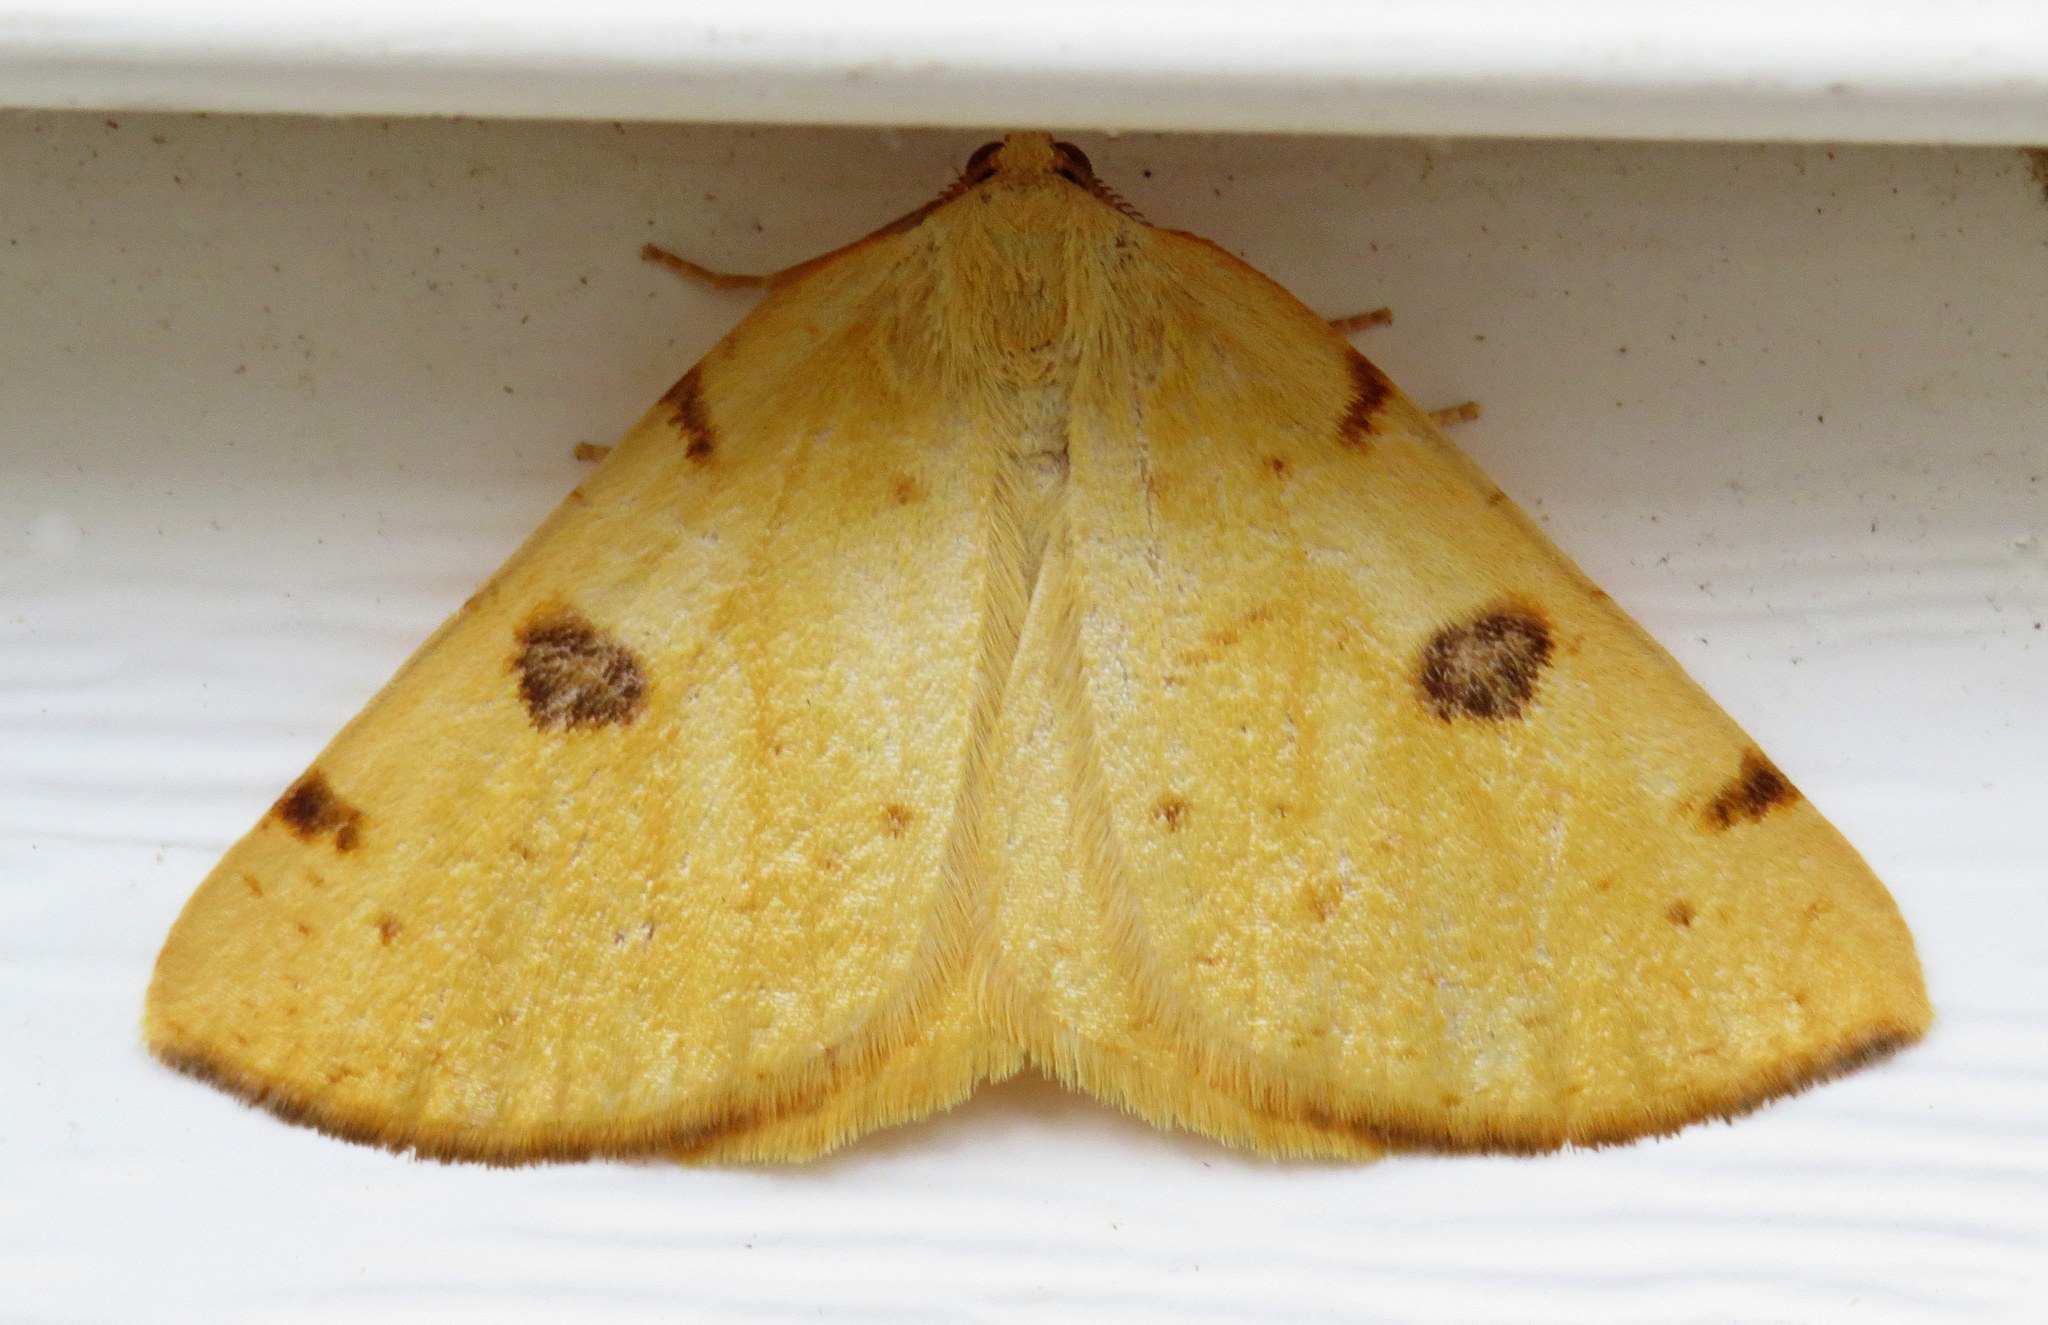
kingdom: Animalia
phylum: Arthropoda
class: Insecta
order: Lepidoptera
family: Geometridae
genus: Hesperumia
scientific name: Hesperumia sulphuraria
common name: Sulphur moth
